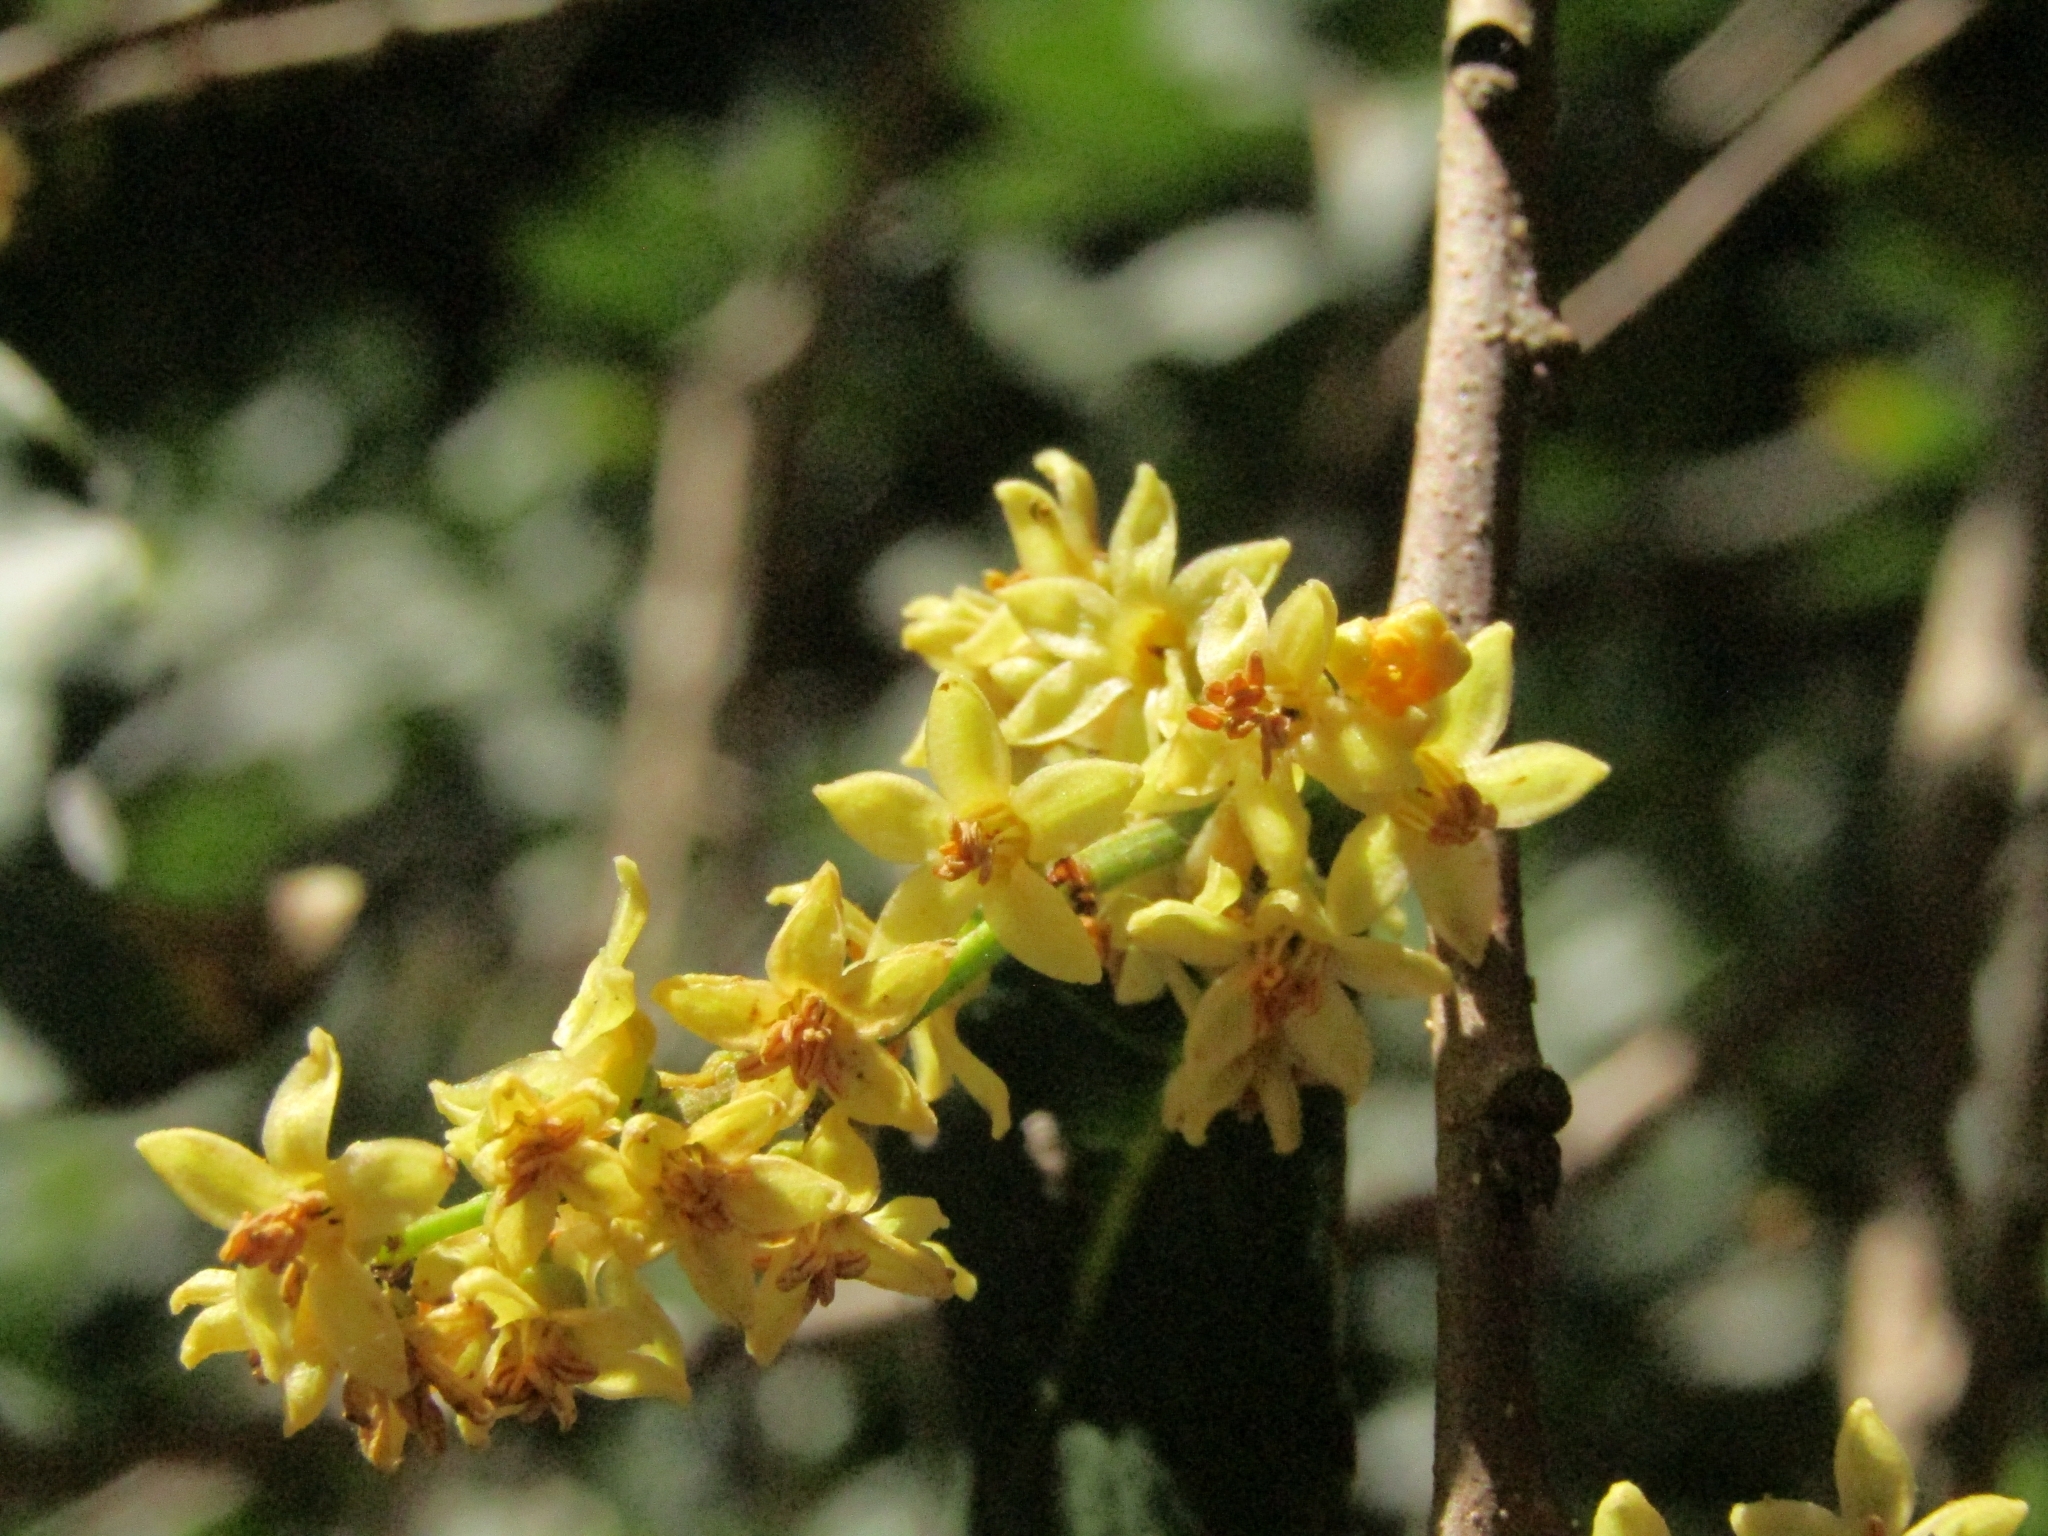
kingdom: Plantae
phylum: Tracheophyta
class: Magnoliopsida
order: Sapindales
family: Anacardiaceae
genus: Lithraea
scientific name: Lithraea caustica
